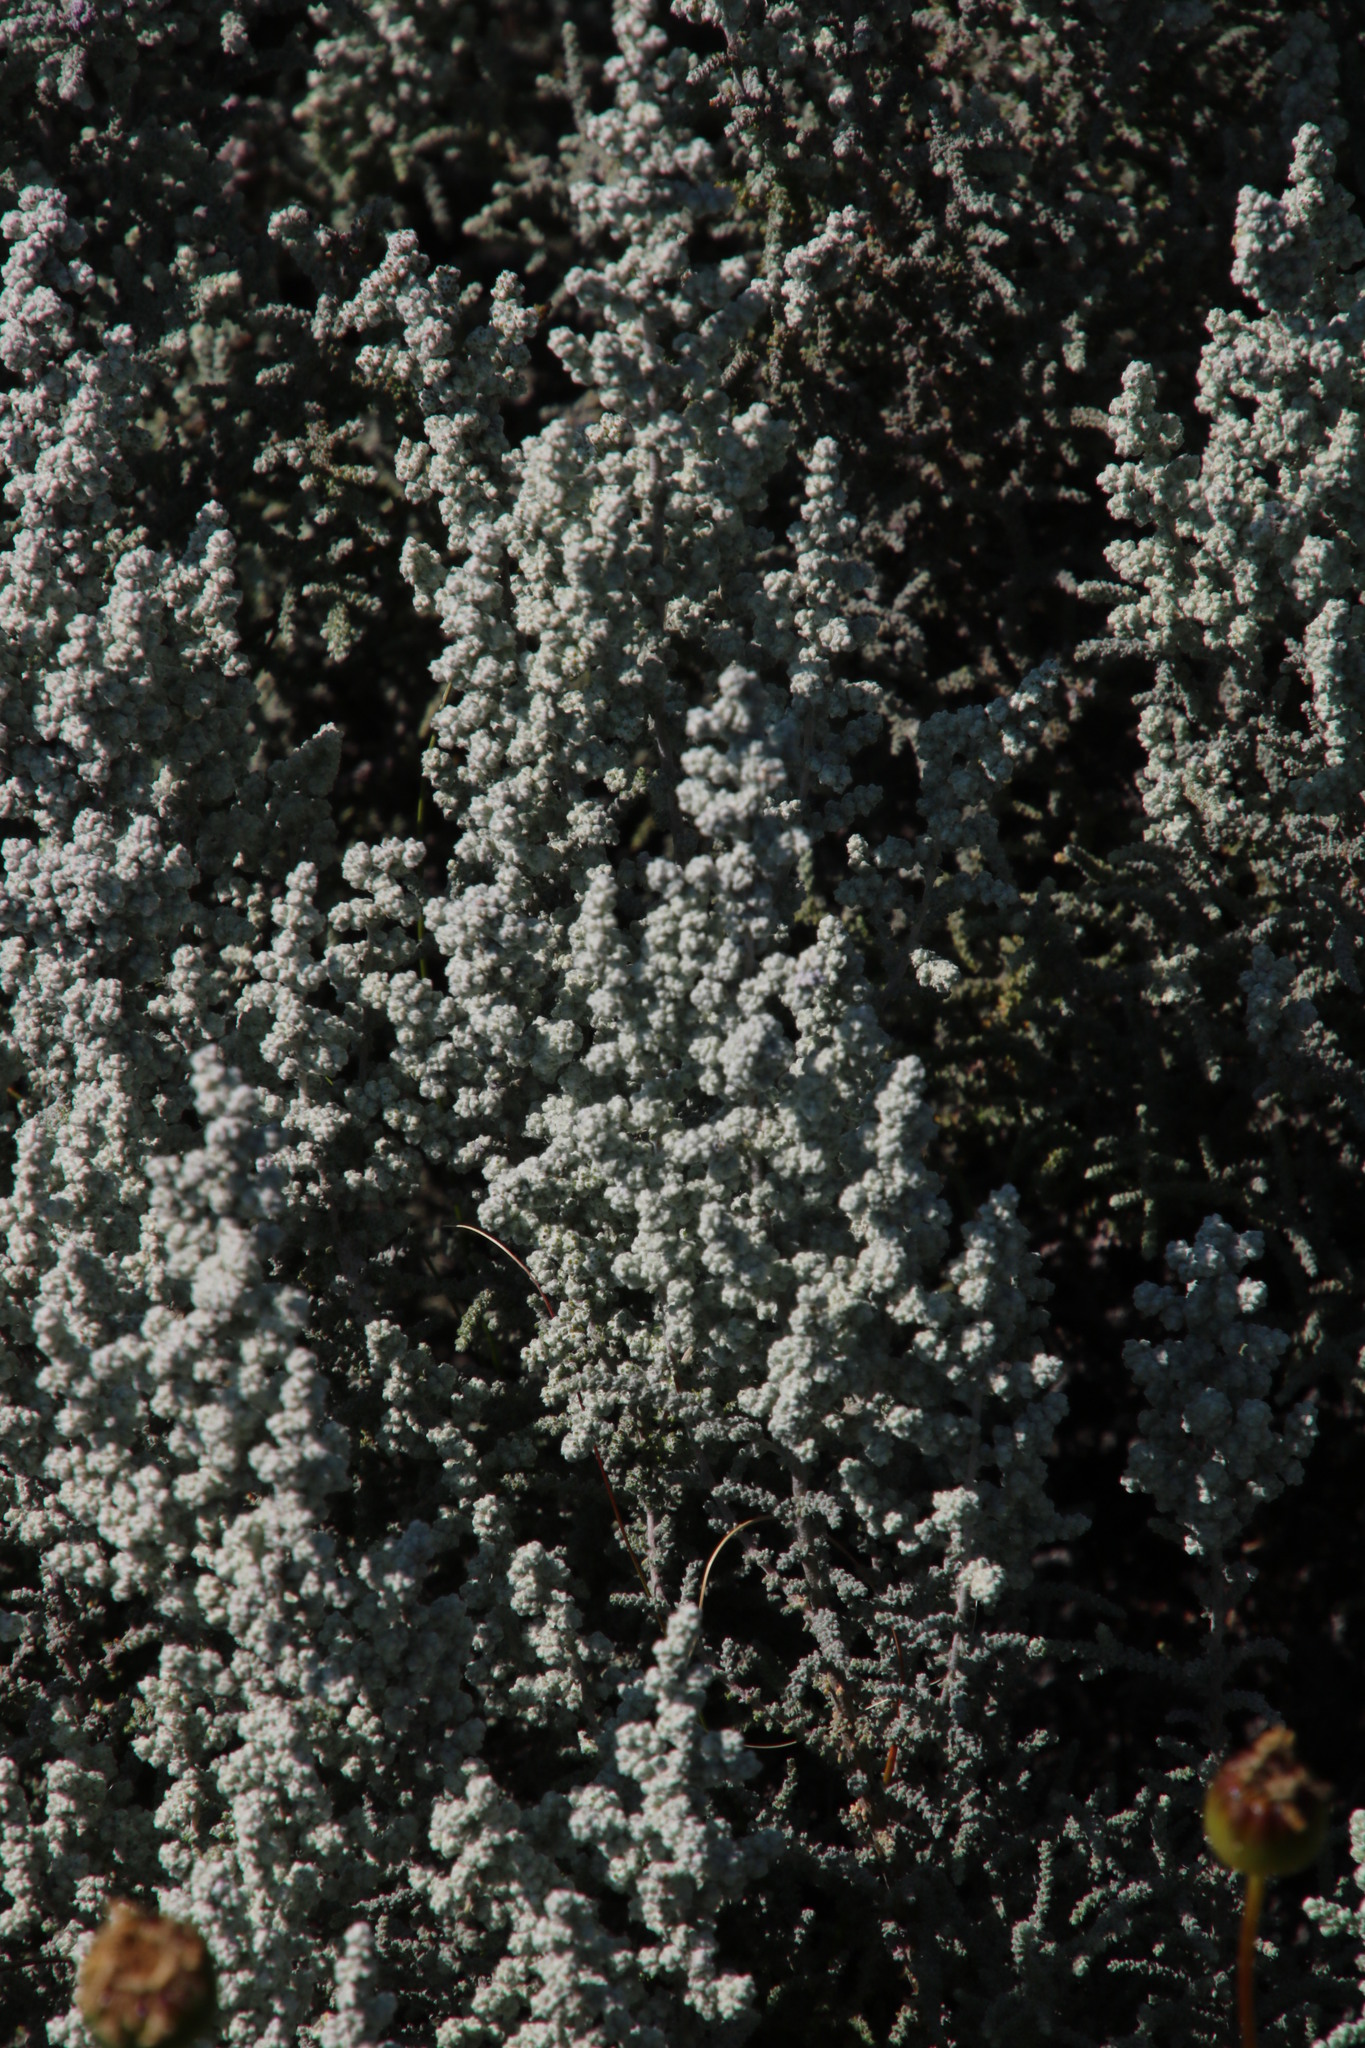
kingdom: Plantae
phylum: Tracheophyta
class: Magnoliopsida
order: Asterales
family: Asteraceae
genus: Seriphium
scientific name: Seriphium plumosum
